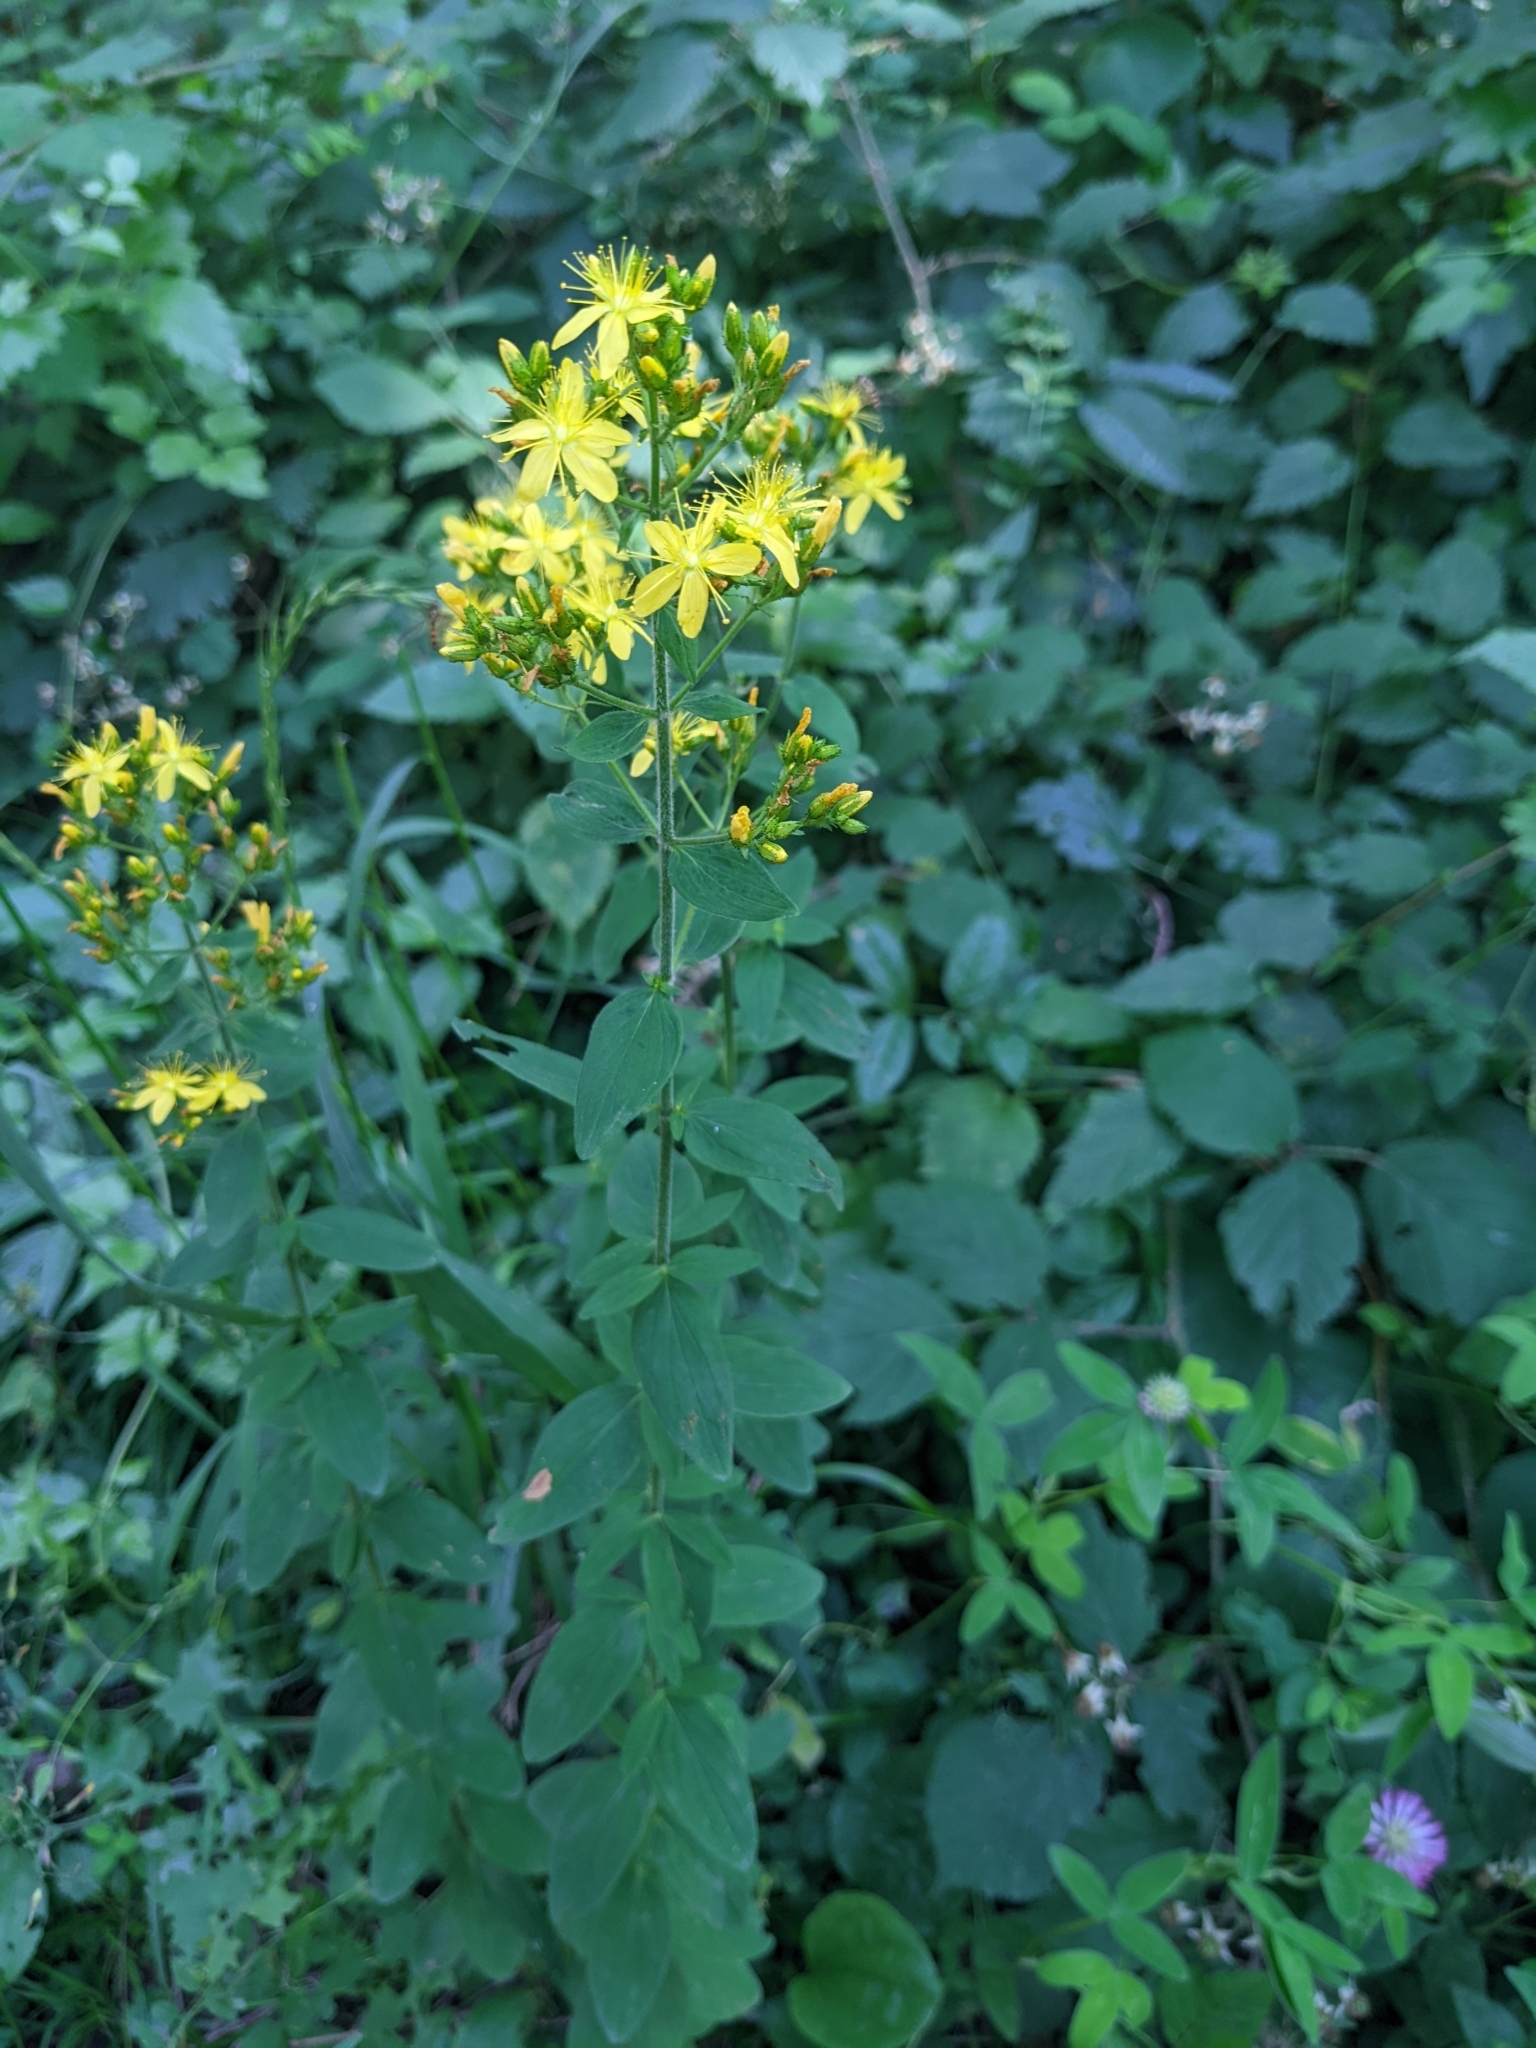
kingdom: Plantae
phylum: Tracheophyta
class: Magnoliopsida
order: Malpighiales
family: Hypericaceae
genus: Hypericum
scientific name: Hypericum hirsutum
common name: Hairy st. john's-wort
